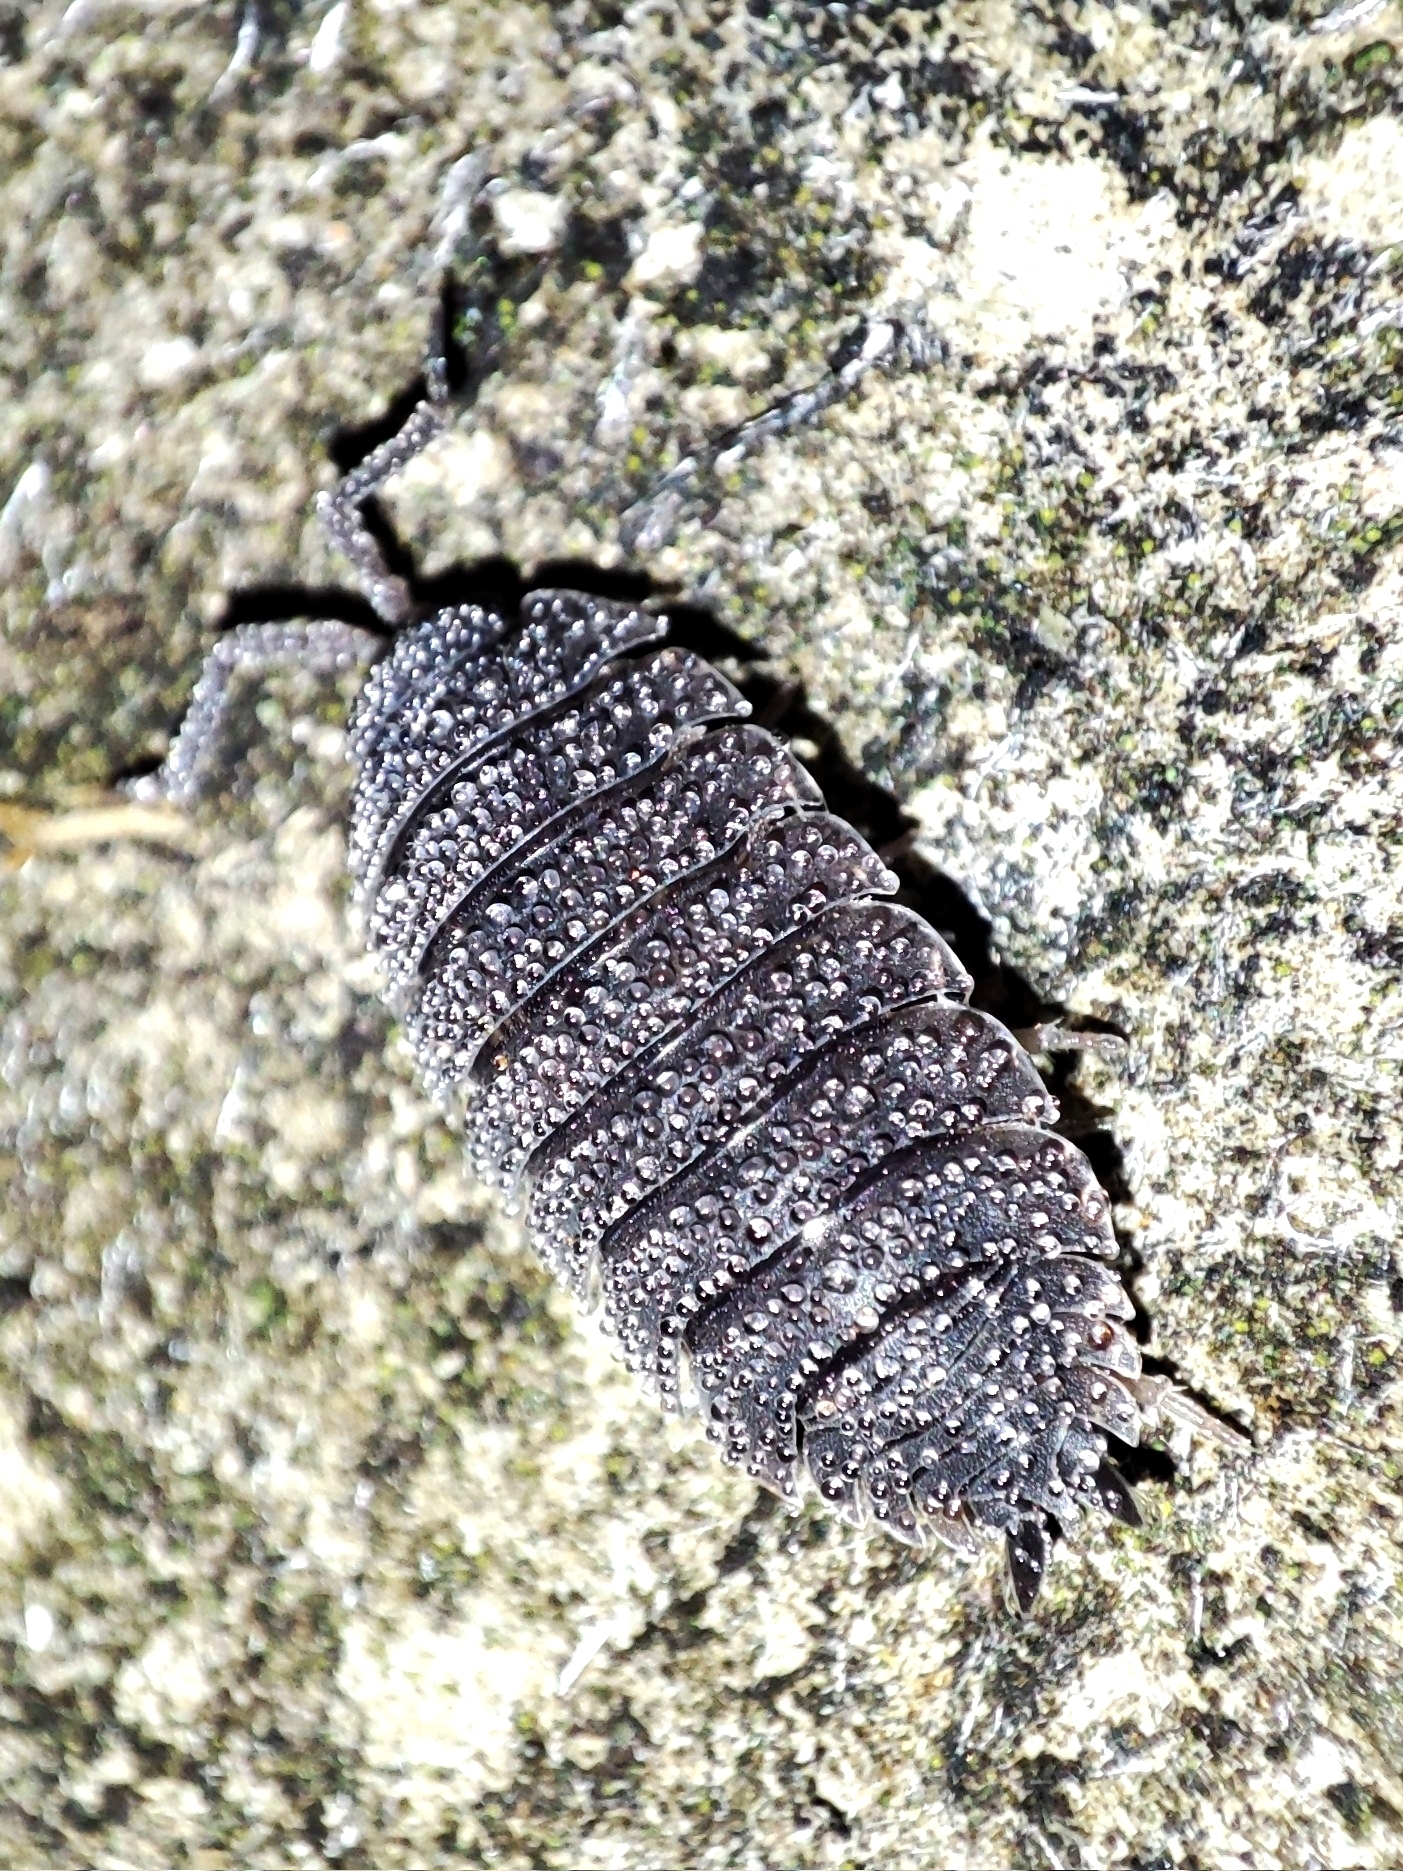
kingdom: Animalia
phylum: Arthropoda
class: Malacostraca
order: Isopoda
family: Porcellionidae
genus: Porcellio
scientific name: Porcellio scaber
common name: Common rough woodlouse
